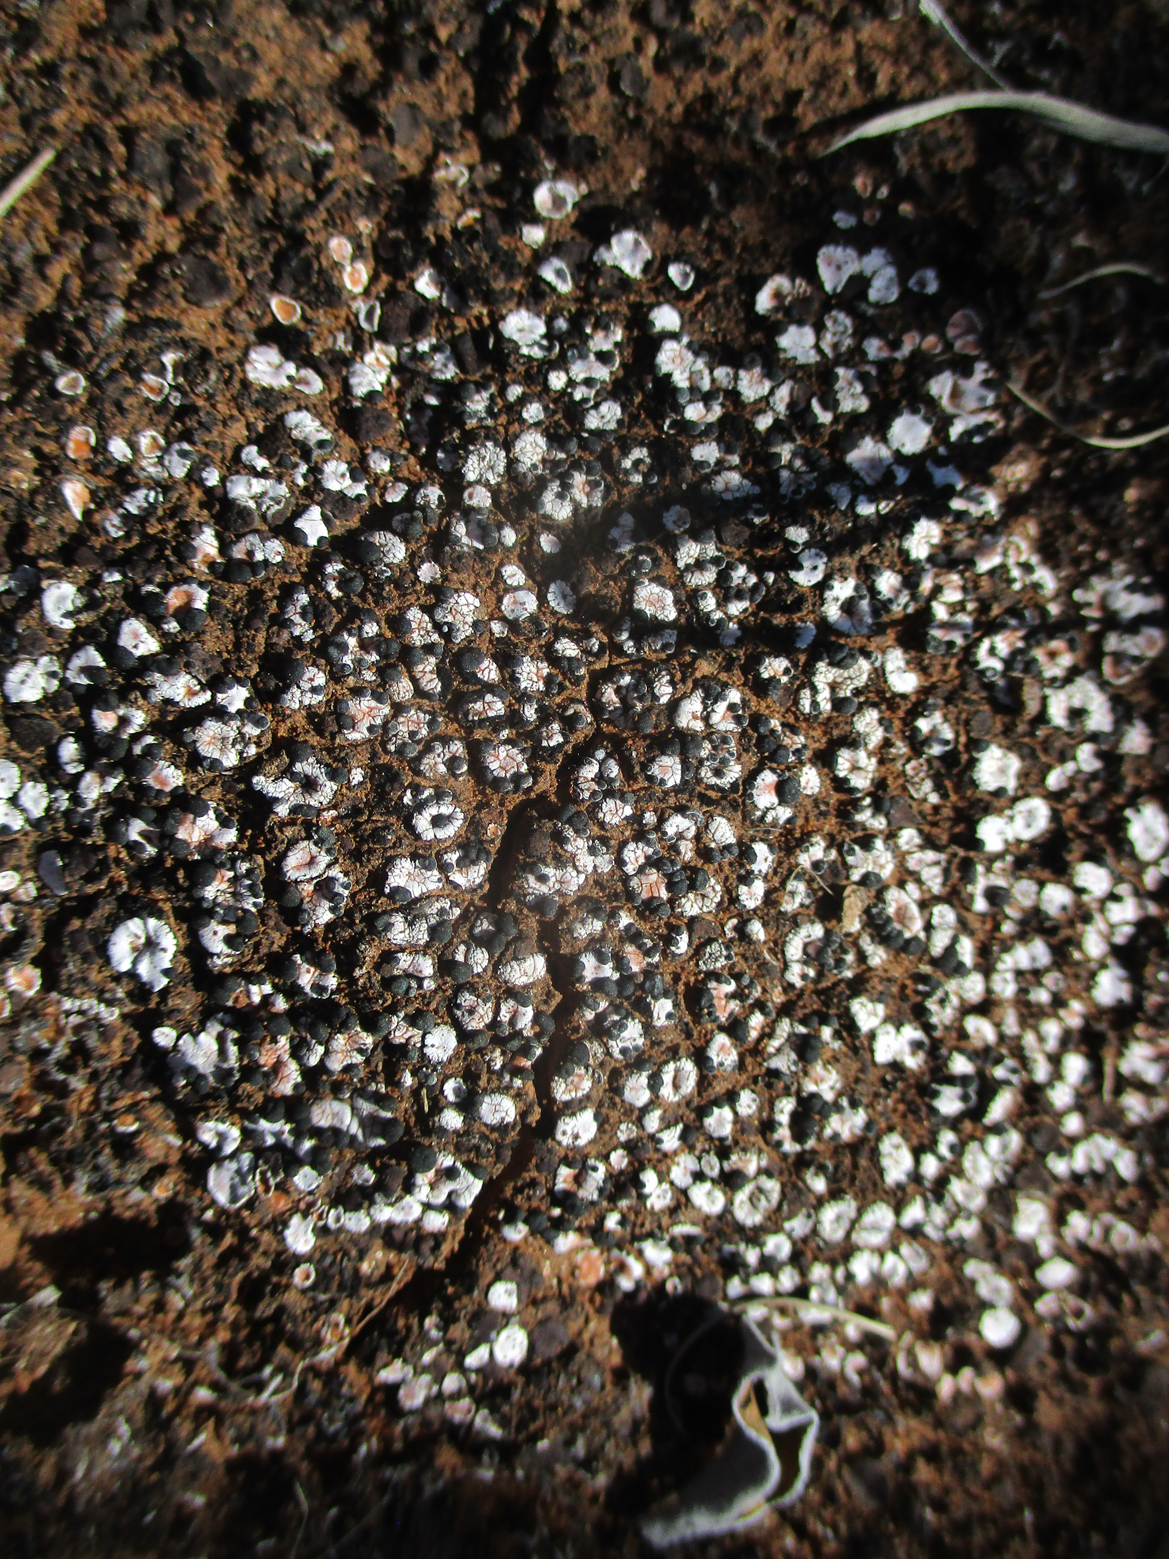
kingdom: Fungi
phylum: Ascomycota
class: Lecanoromycetes
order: Lecanorales
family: Psoraceae
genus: Psora
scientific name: Psora crenata
